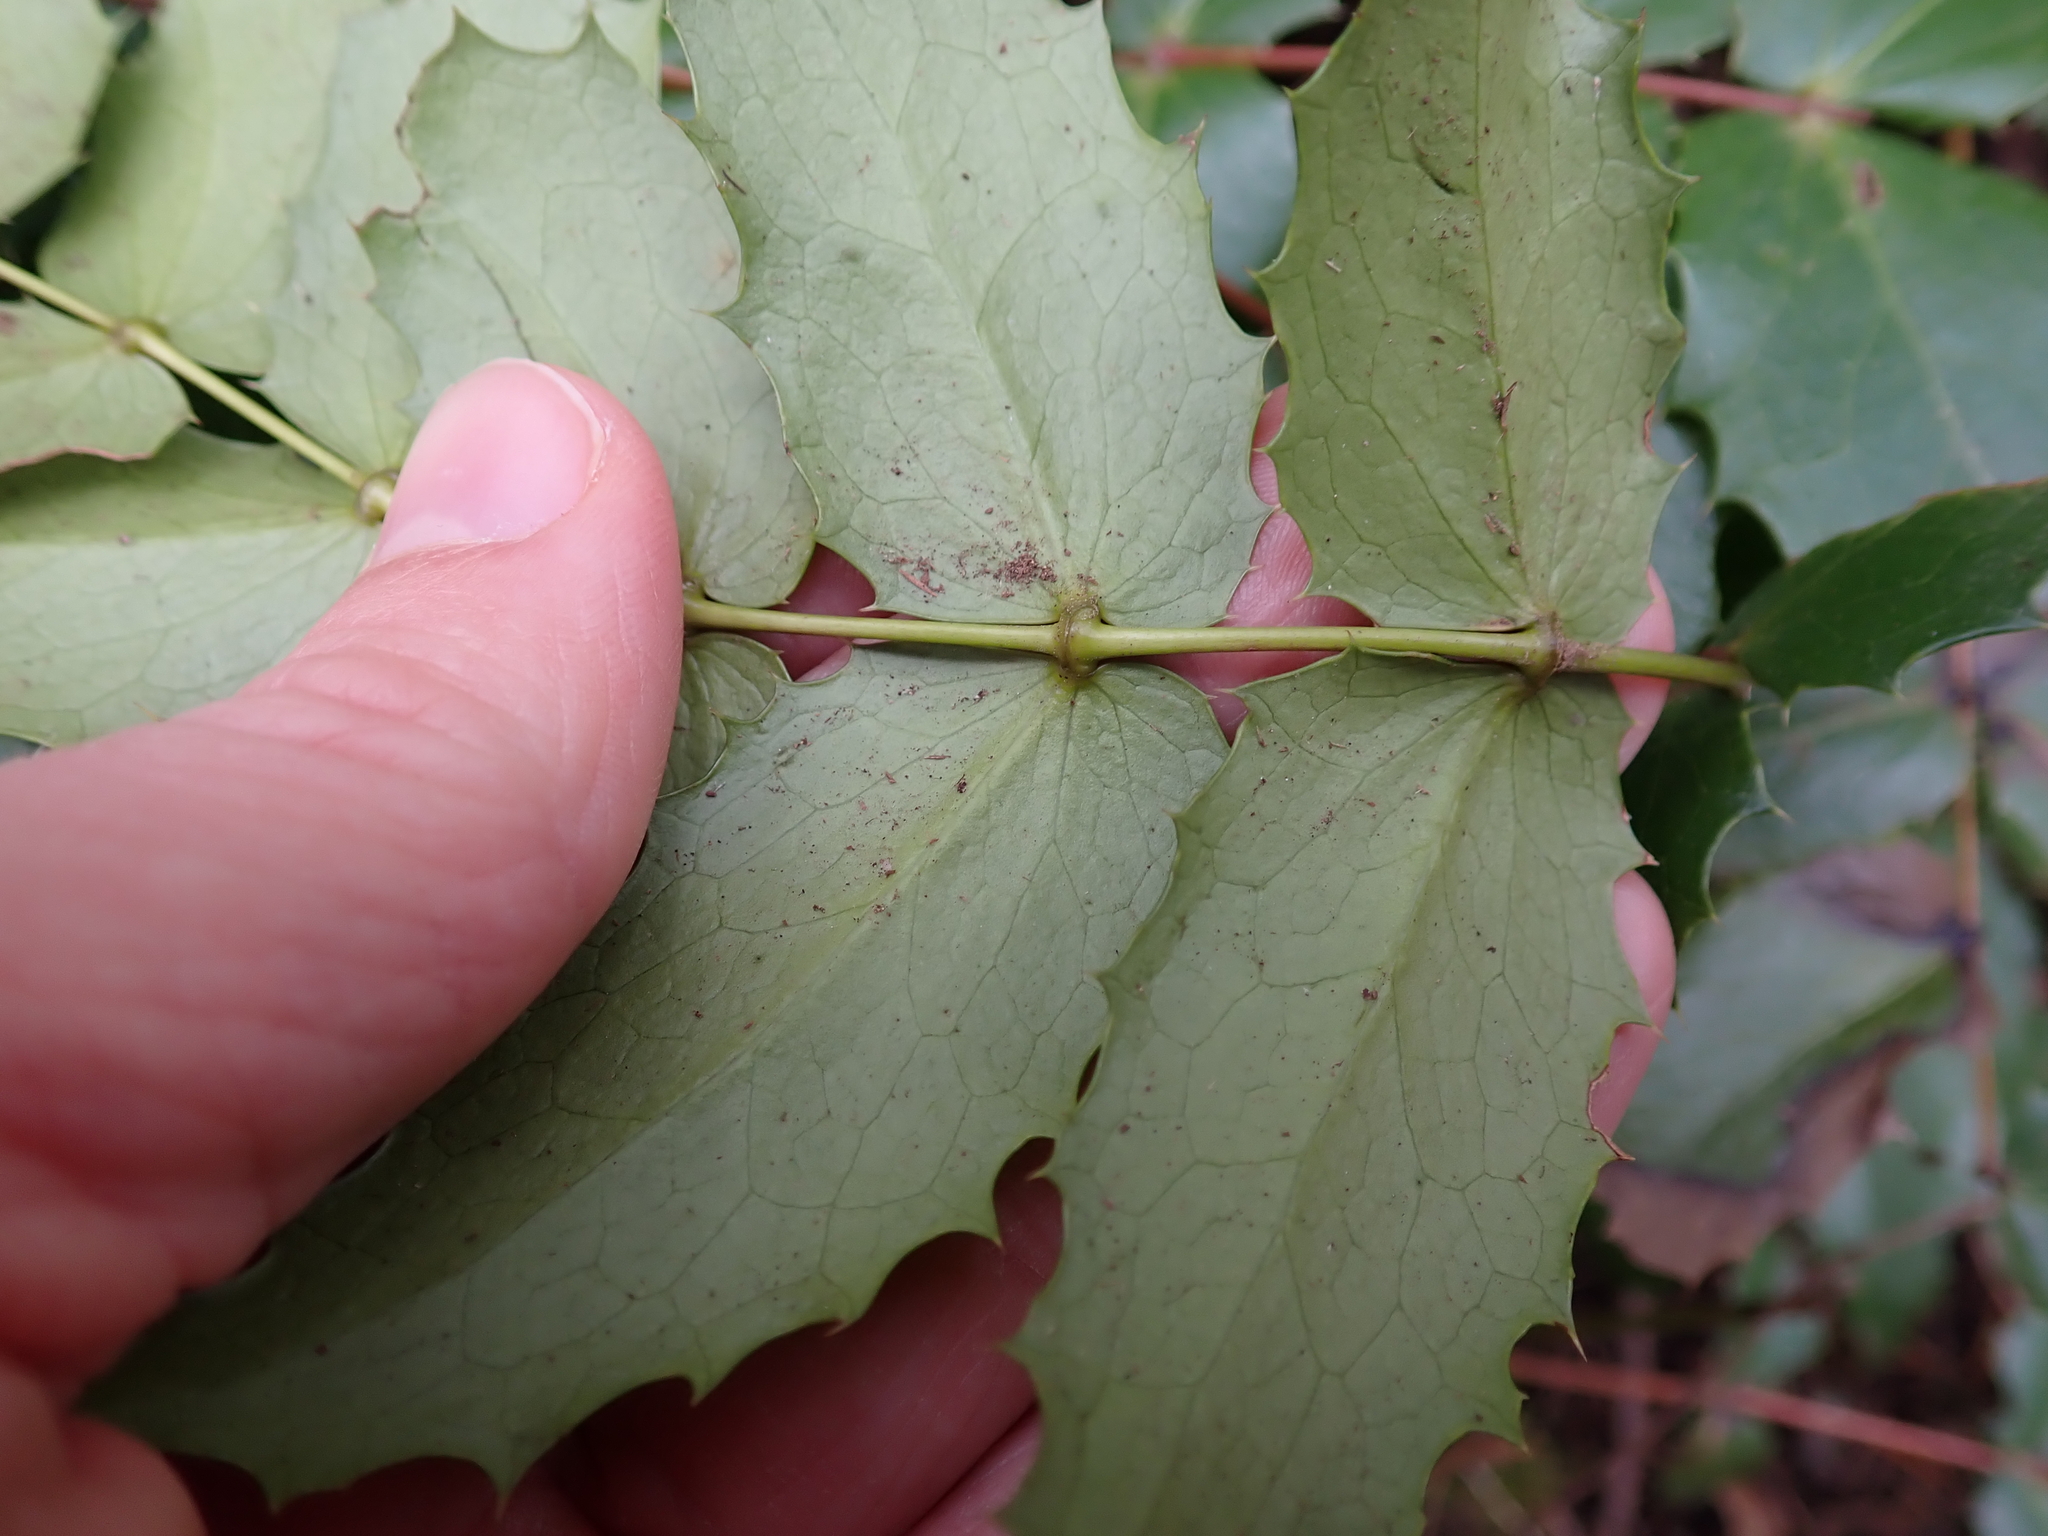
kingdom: Plantae
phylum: Tracheophyta
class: Magnoliopsida
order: Ranunculales
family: Berberidaceae
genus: Mahonia
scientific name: Mahonia nervosa
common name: Cascade oregon-grape
